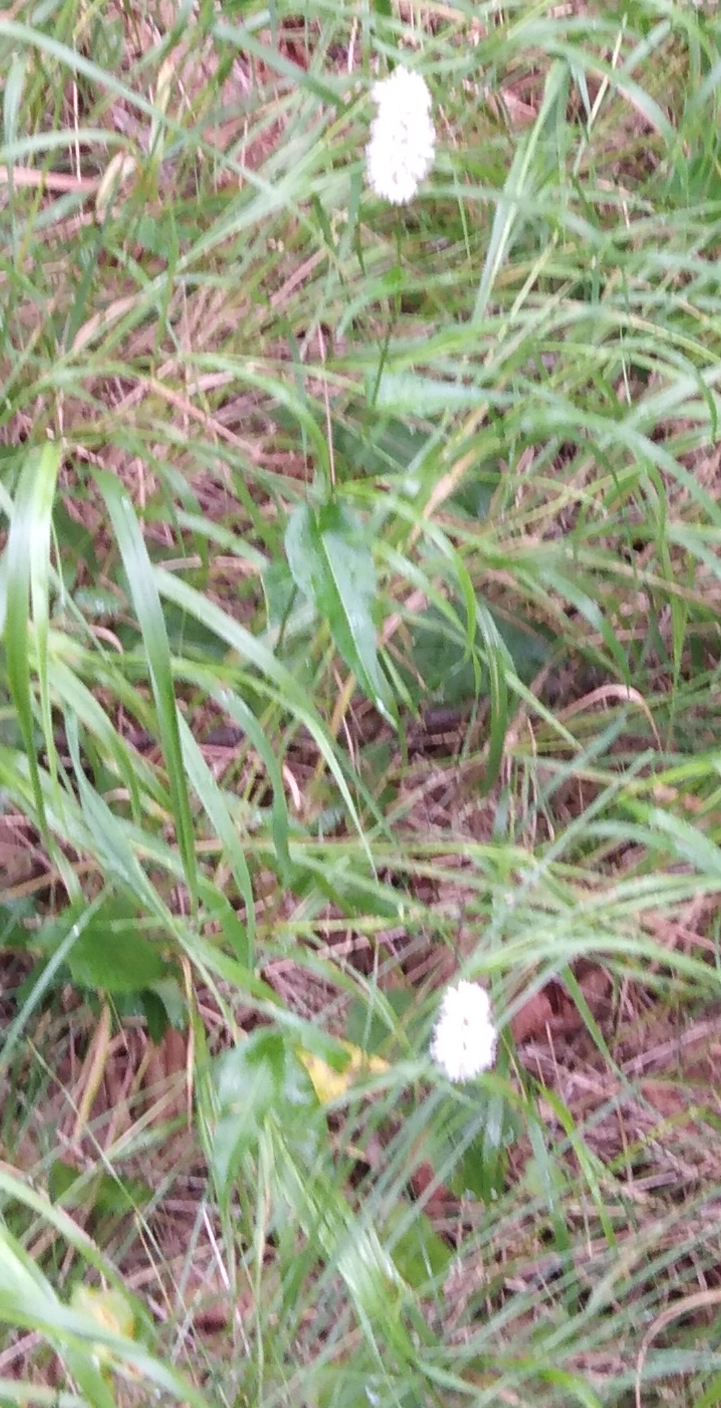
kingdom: Plantae
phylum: Tracheophyta
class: Magnoliopsida
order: Caryophyllales
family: Polygonaceae
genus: Bistorta
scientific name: Bistorta officinalis
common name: Common bistort
